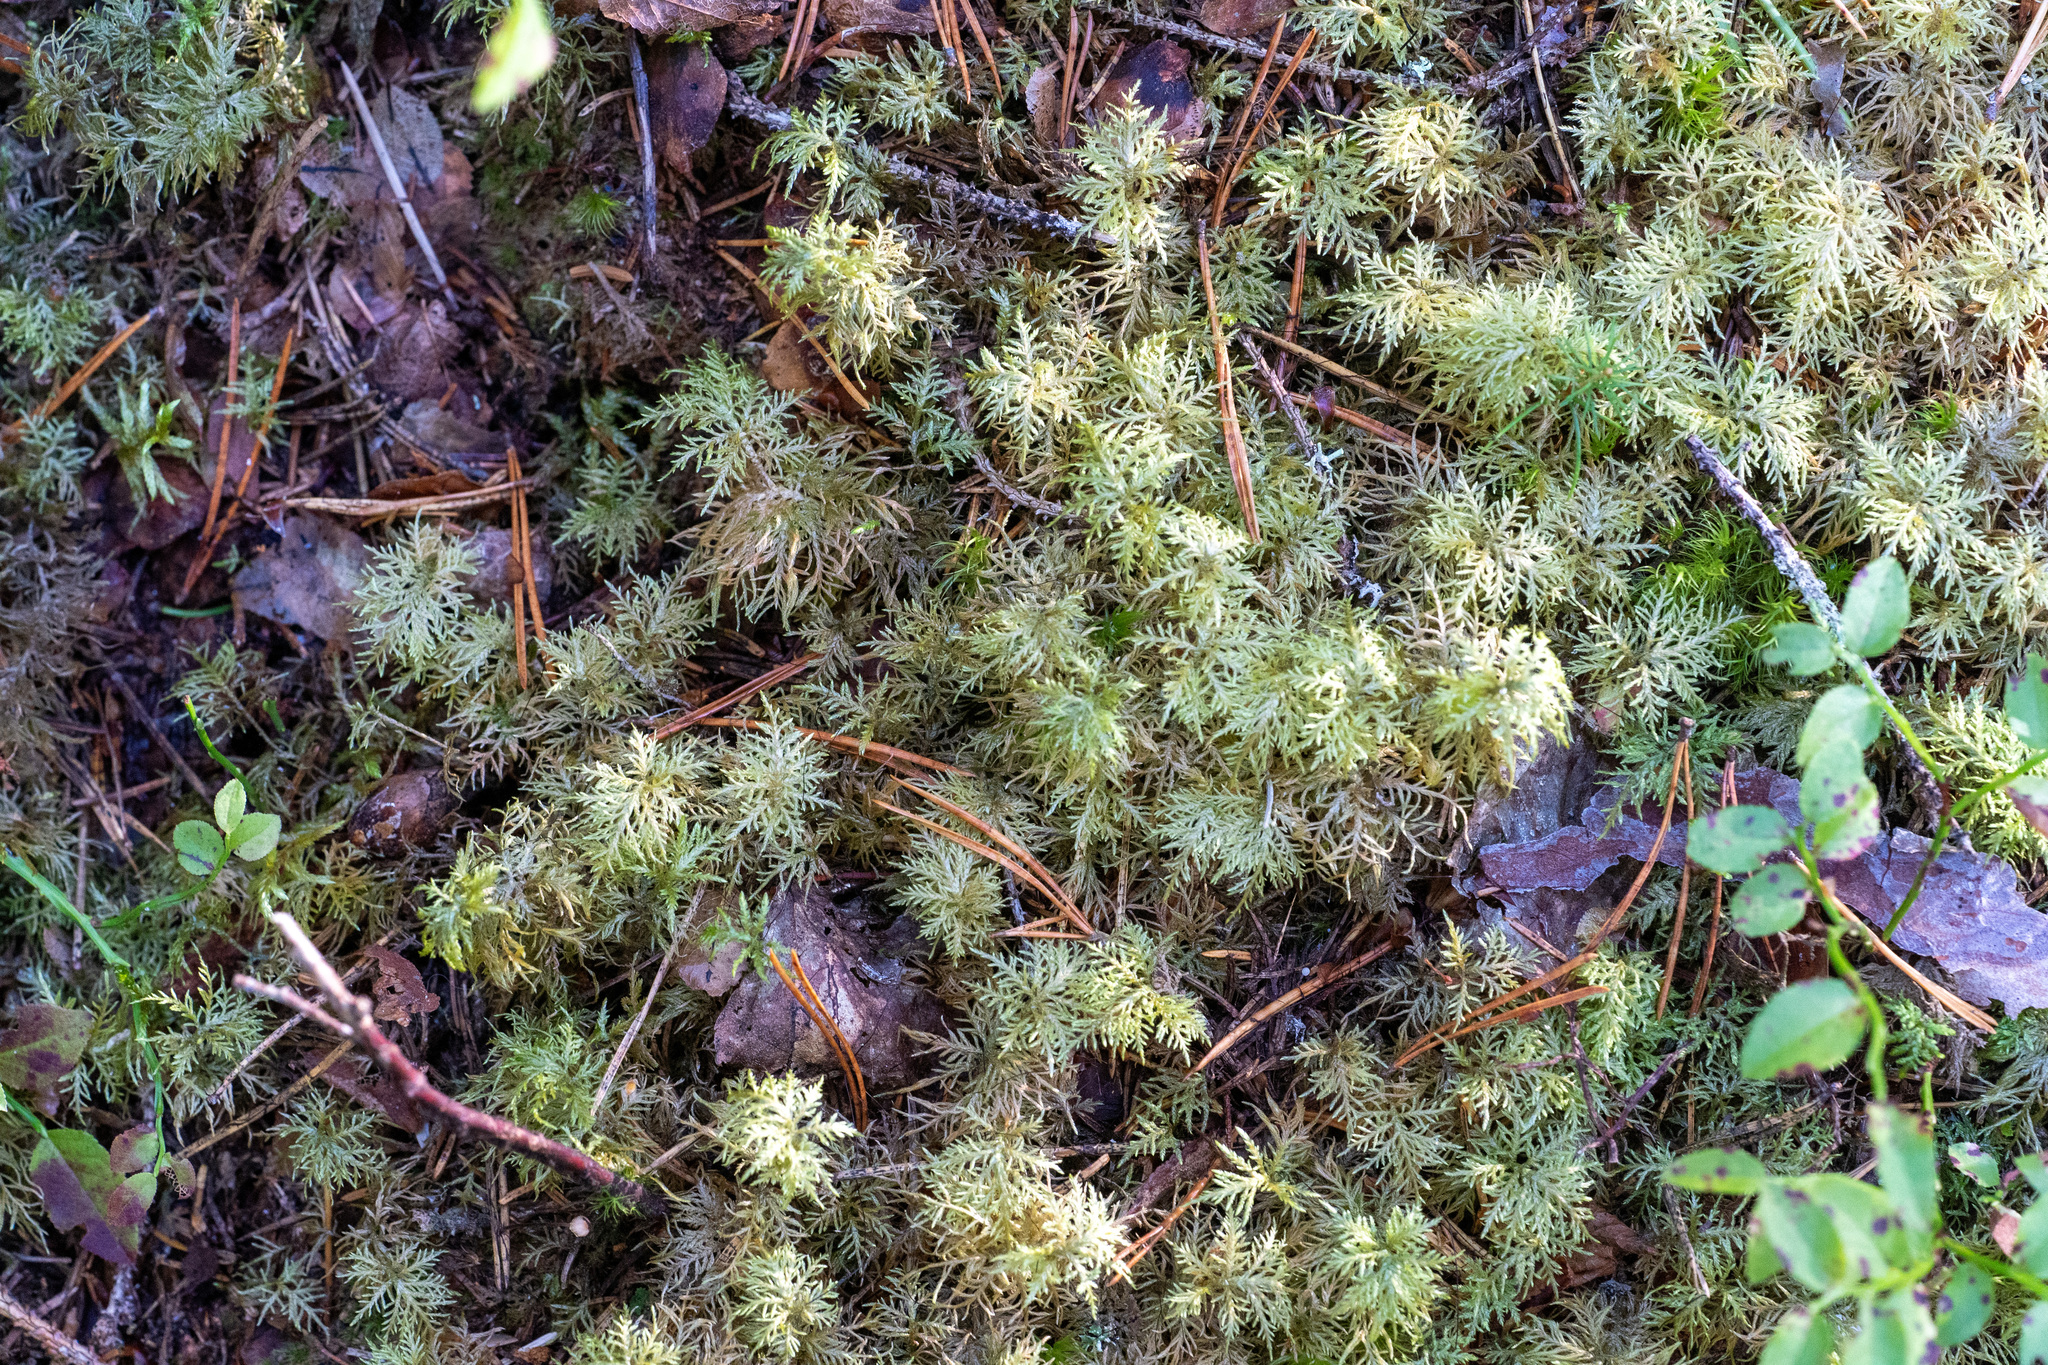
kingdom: Plantae
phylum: Bryophyta
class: Bryopsida
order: Hypnales
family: Hylocomiaceae
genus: Hylocomium
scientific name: Hylocomium splendens
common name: Stairstep moss
